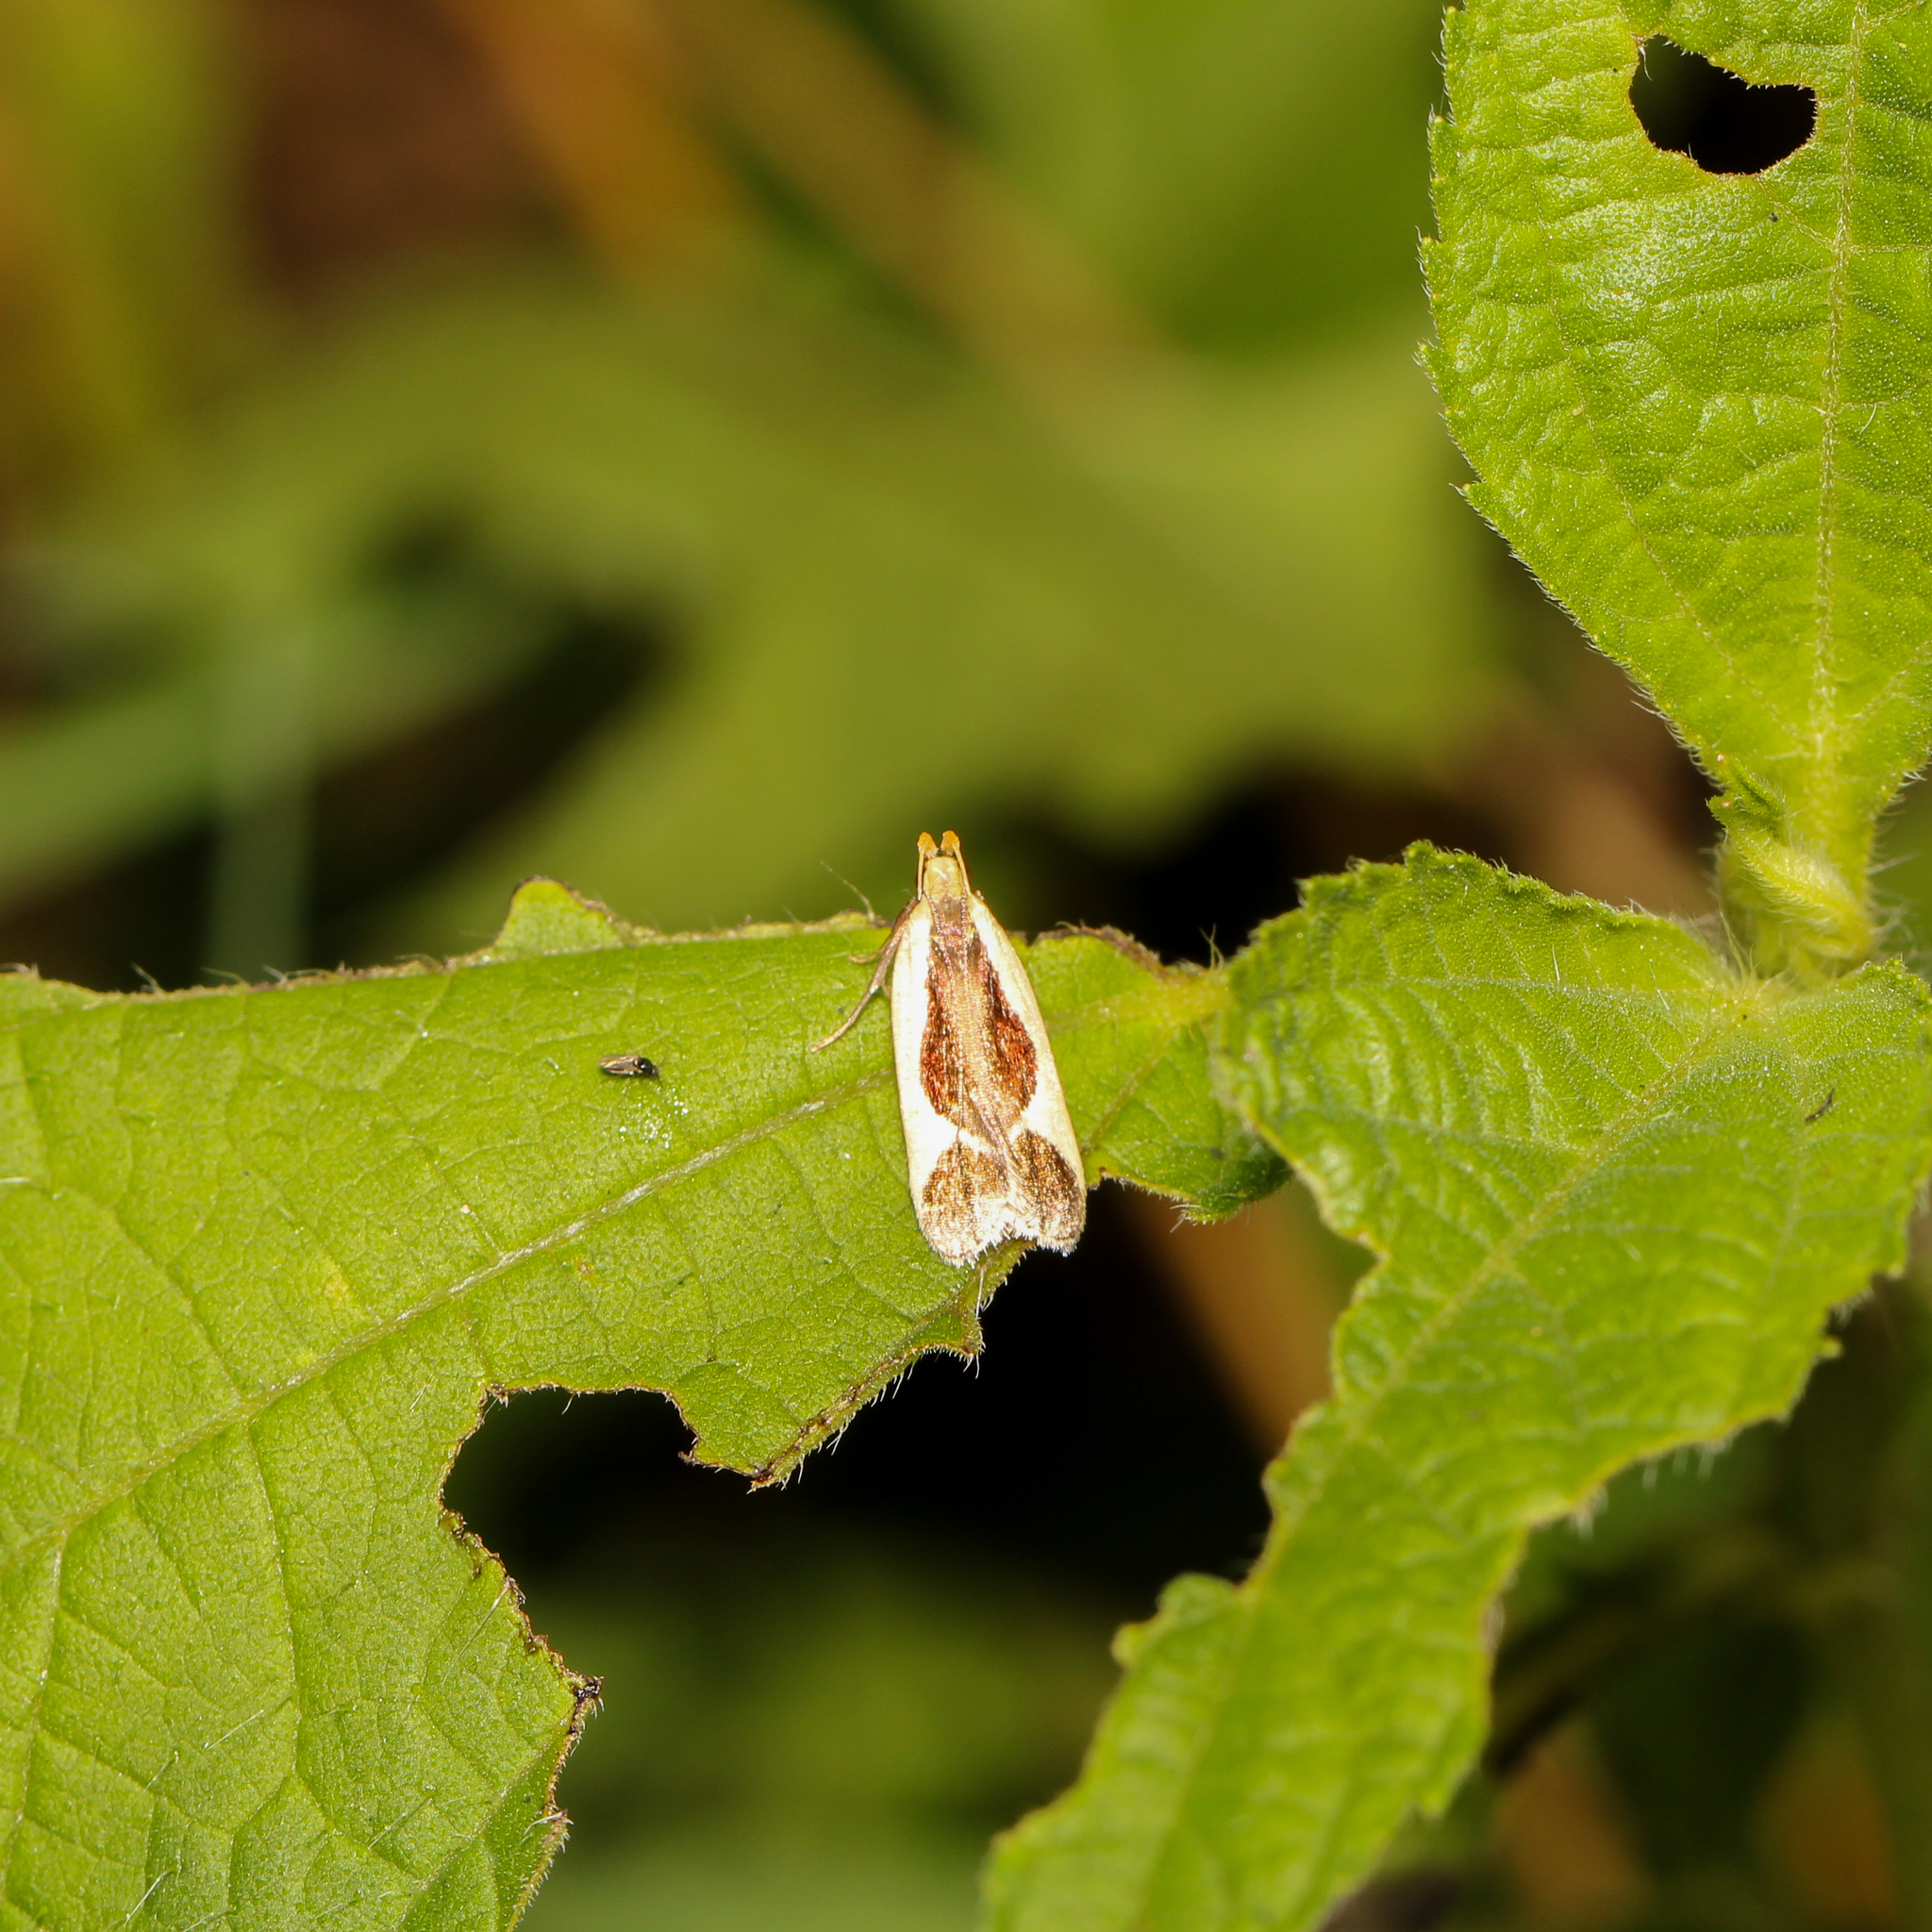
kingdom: Animalia
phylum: Arthropoda
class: Insecta
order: Lepidoptera
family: Gelechiidae
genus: Dichomeris
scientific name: Dichomeris flavocostella
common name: Cream-edged dichomeris moth
